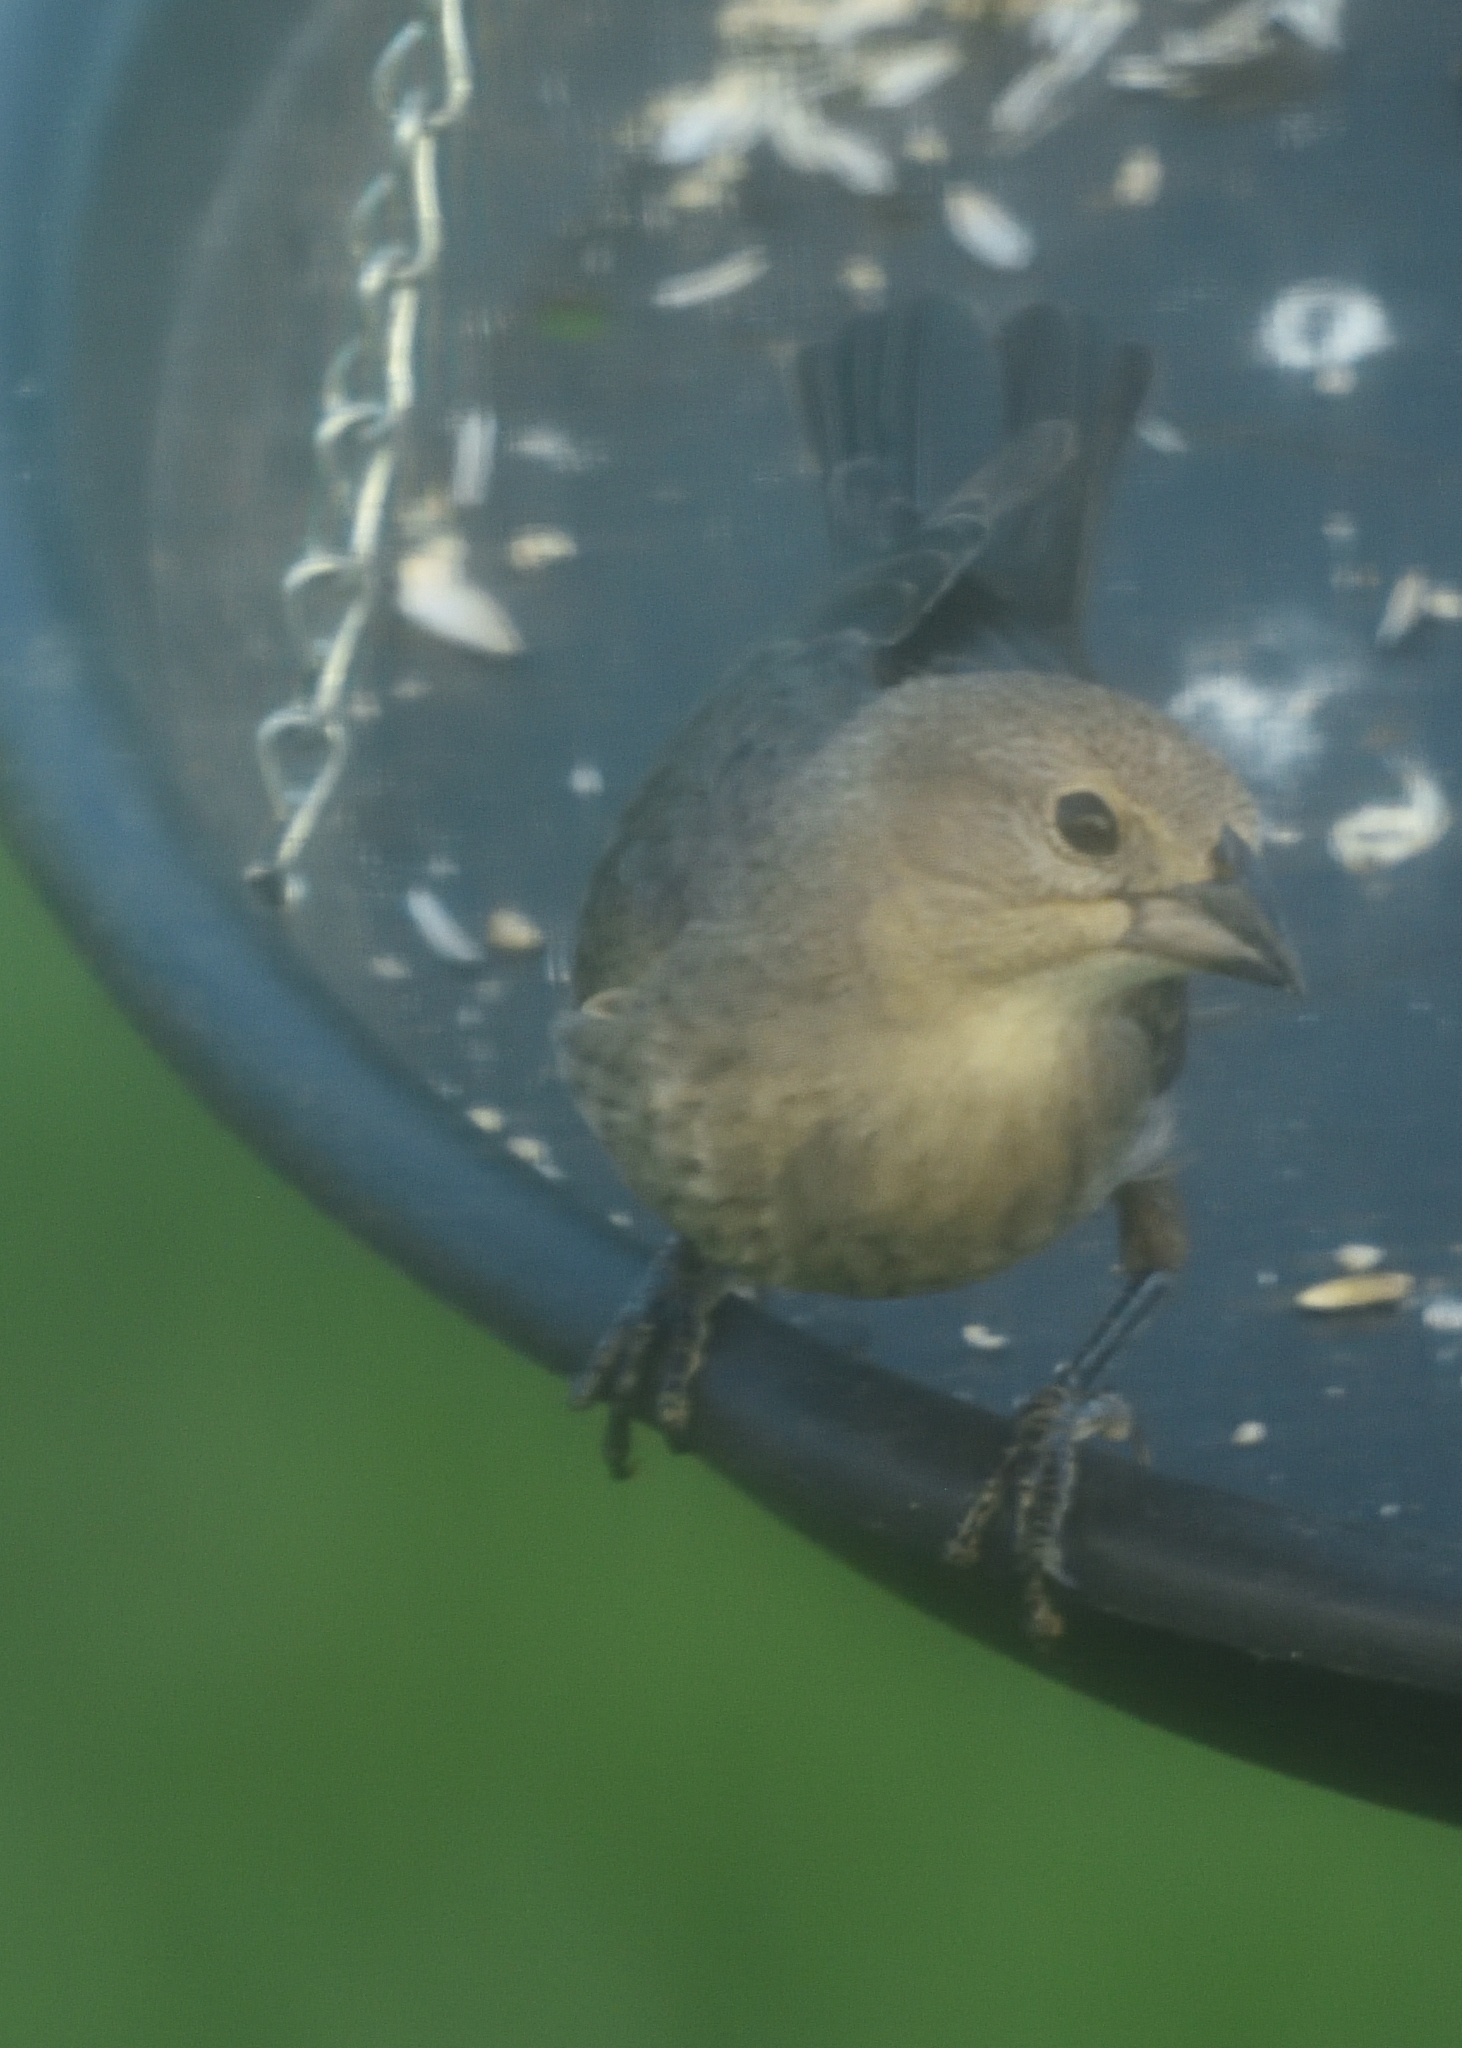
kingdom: Animalia
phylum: Chordata
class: Aves
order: Passeriformes
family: Icteridae
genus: Molothrus
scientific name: Molothrus ater
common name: Brown-headed cowbird
